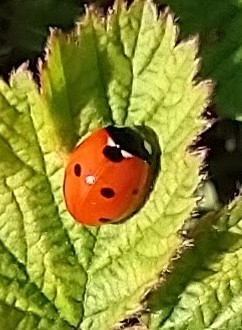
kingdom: Animalia
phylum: Arthropoda
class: Insecta
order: Coleoptera
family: Coccinellidae
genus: Coccinella
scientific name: Coccinella septempunctata
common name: Sevenspotted lady beetle
